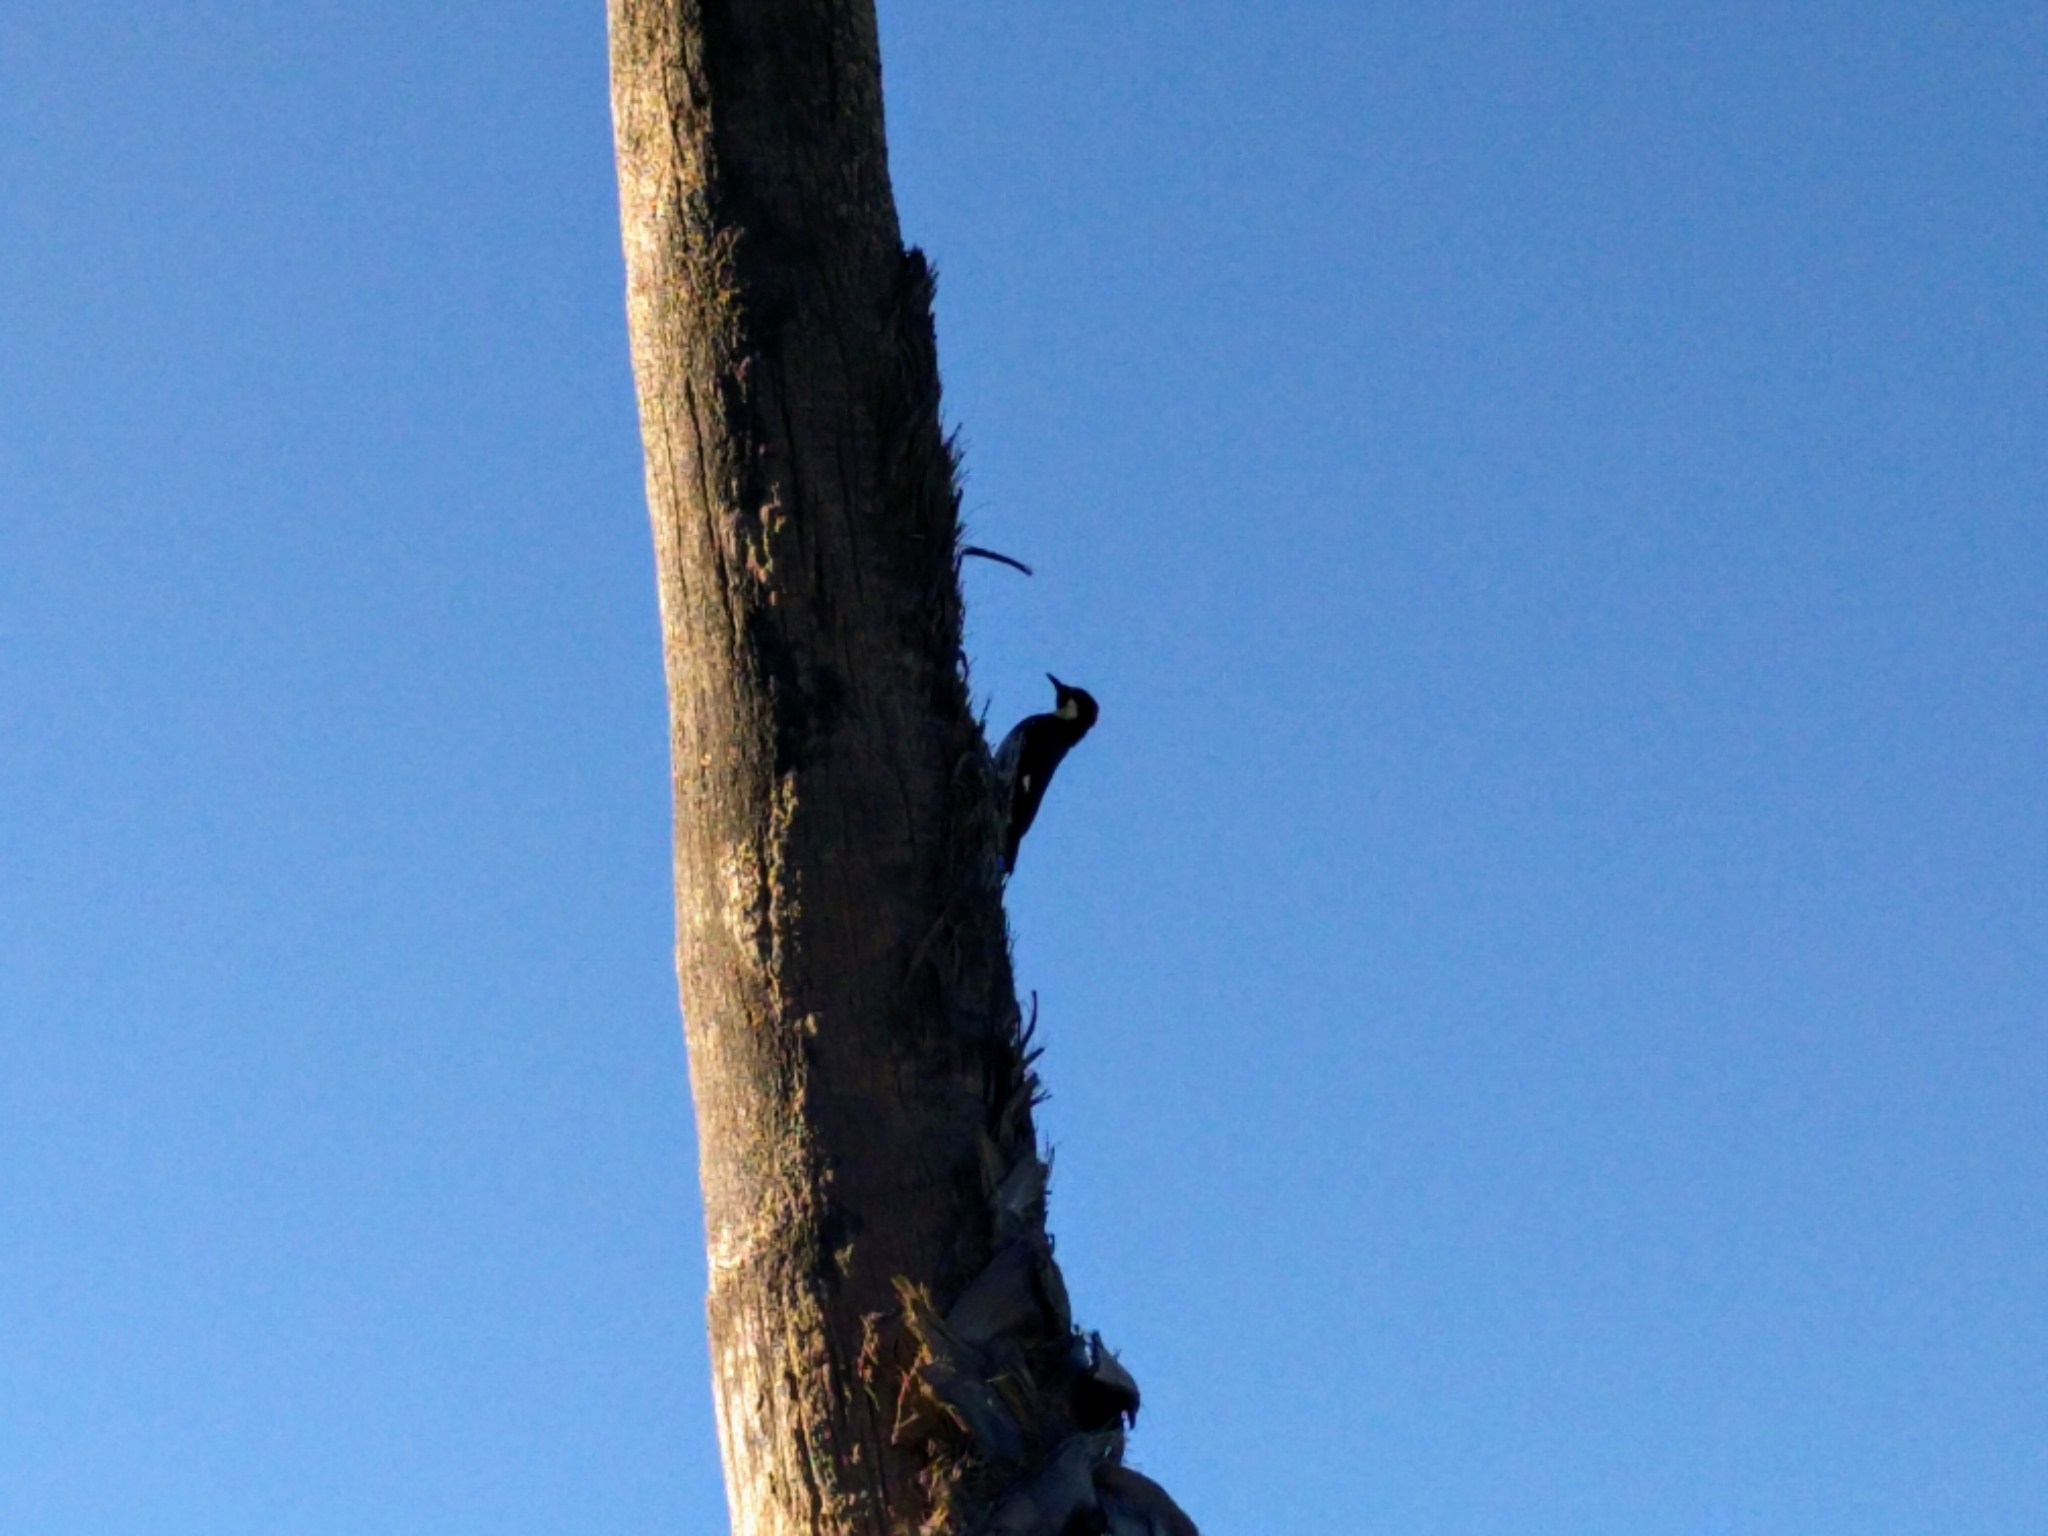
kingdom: Animalia
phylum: Chordata
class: Aves
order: Piciformes
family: Picidae
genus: Melanerpes
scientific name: Melanerpes formicivorus
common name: Acorn woodpecker
